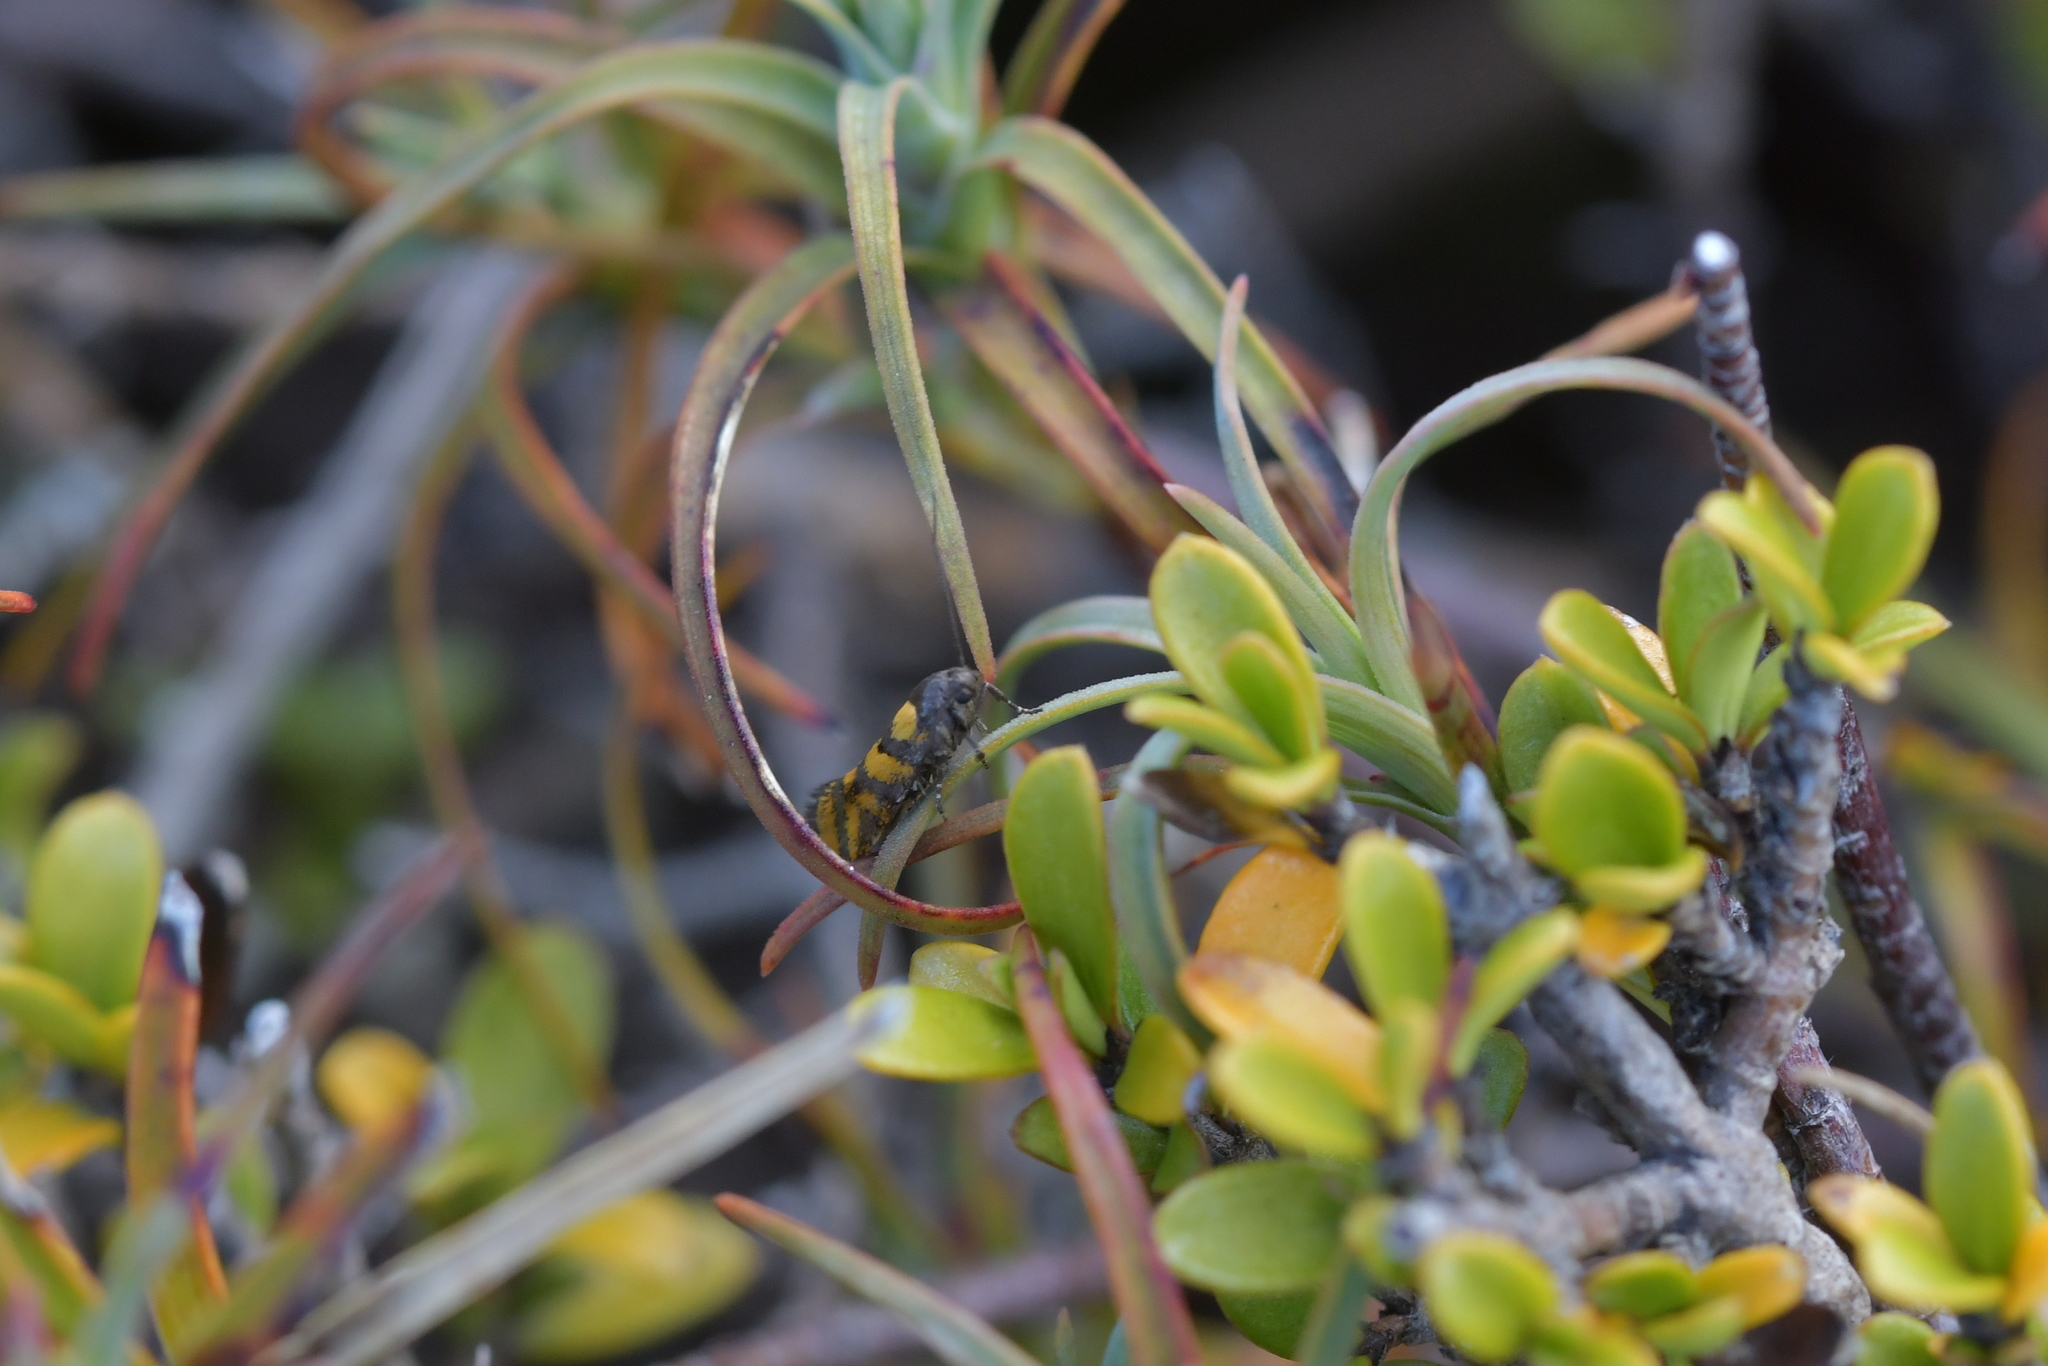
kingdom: Animalia
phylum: Arthropoda
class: Insecta
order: Lepidoptera
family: Oecophoridae
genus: Tingena
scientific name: Tingena compsogramma
